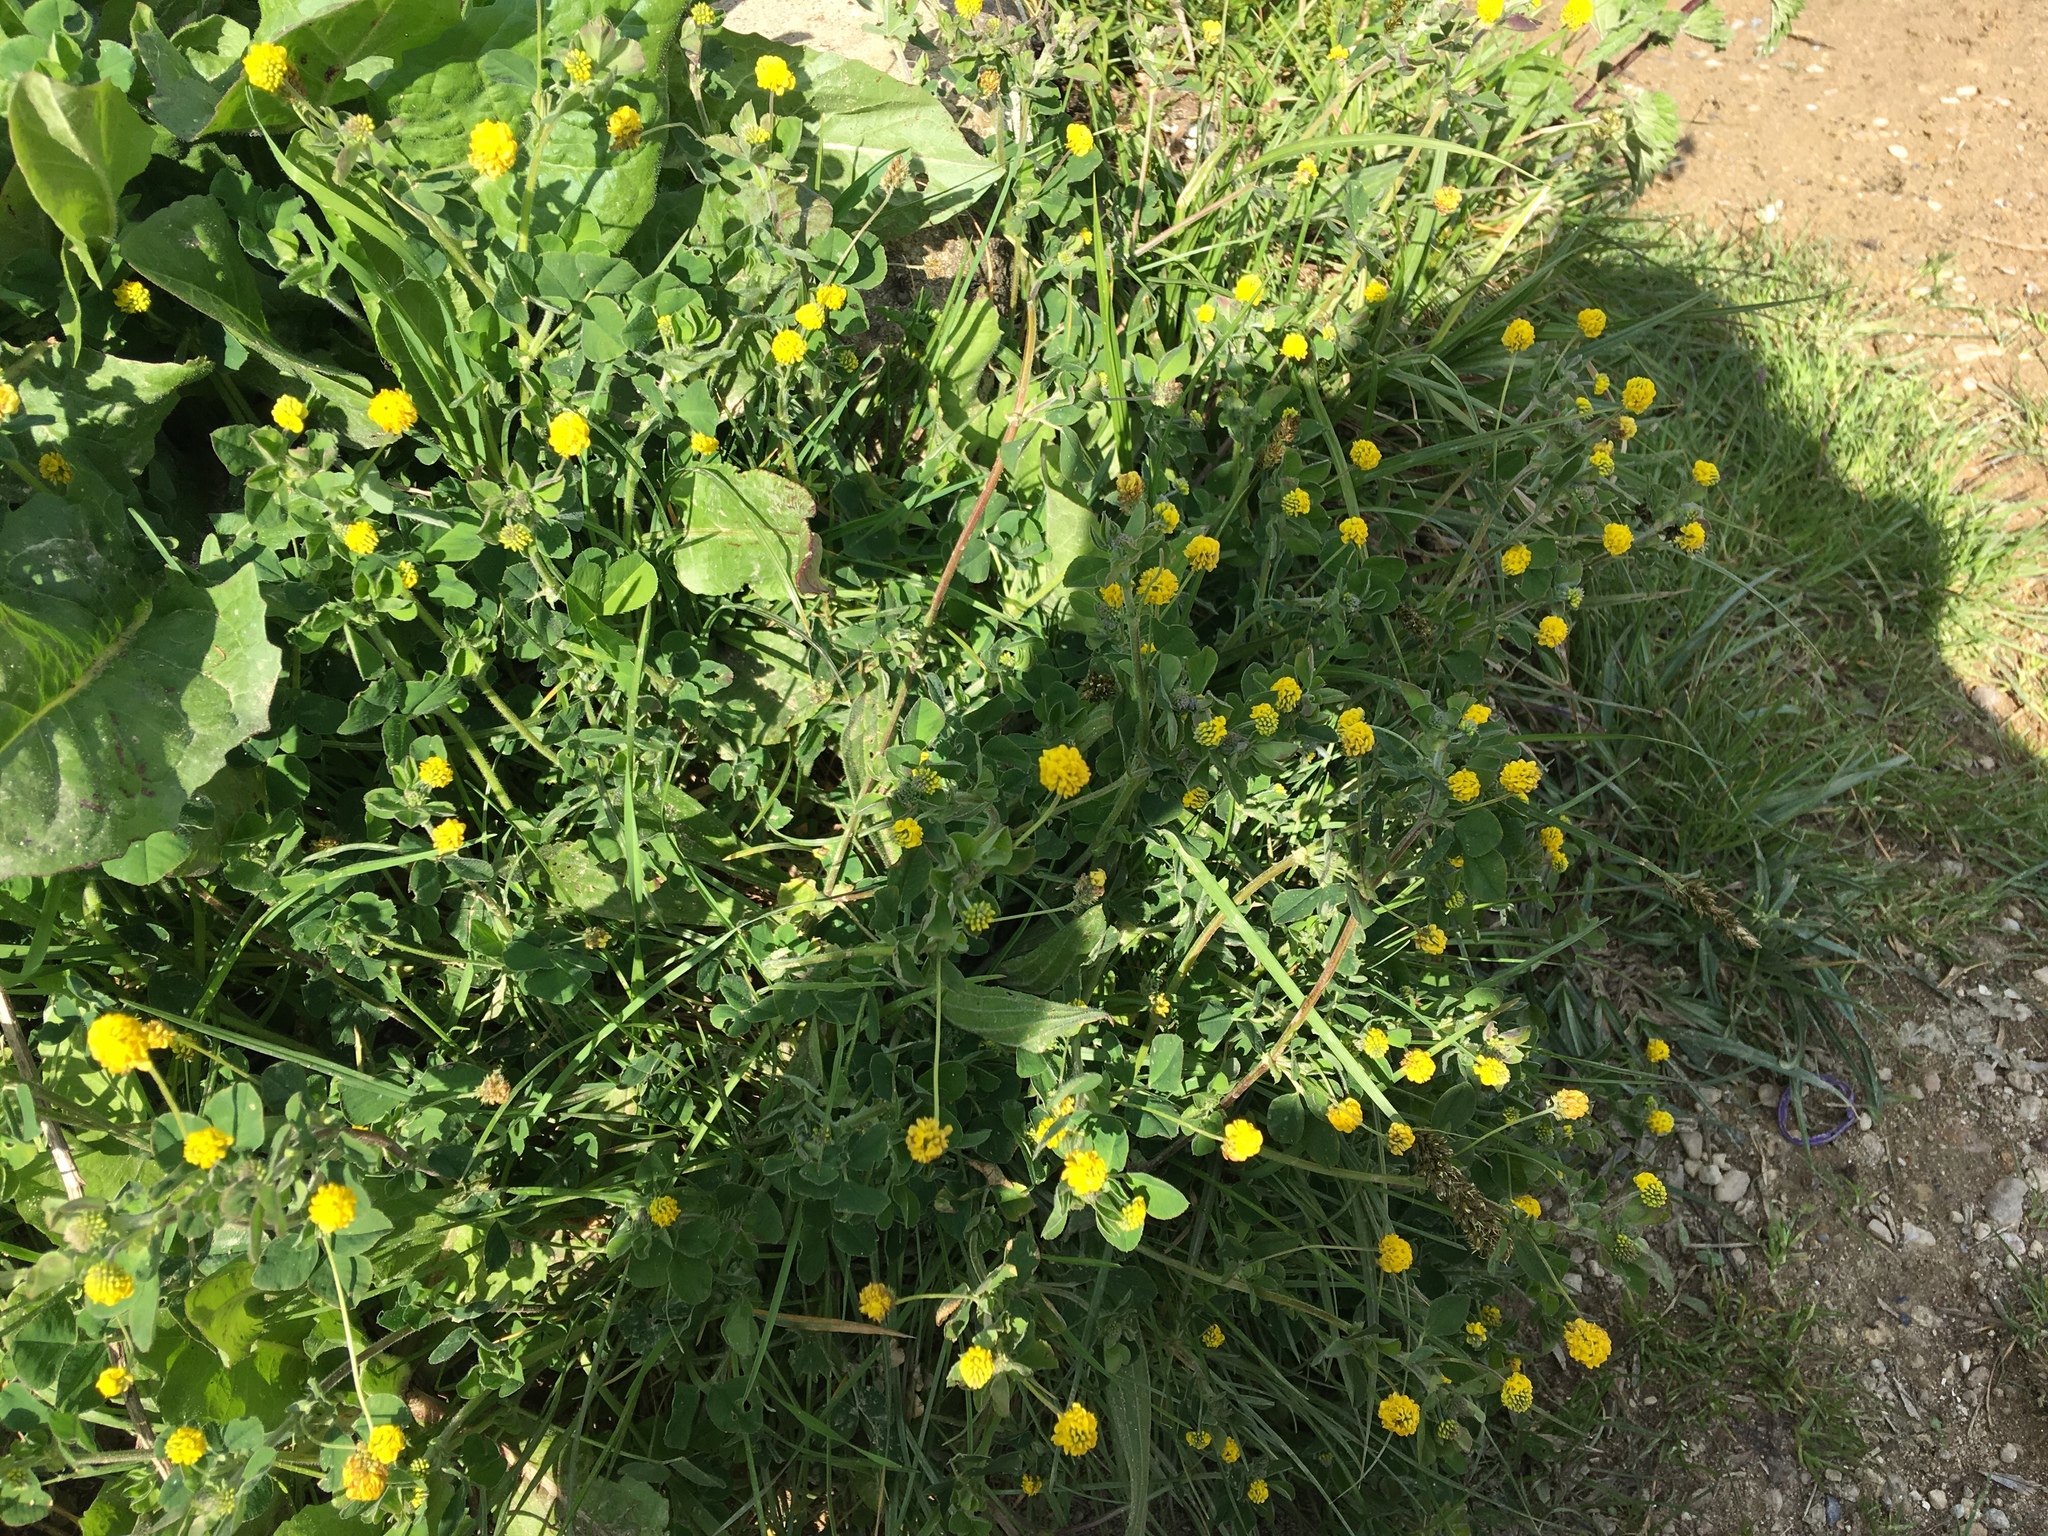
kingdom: Plantae
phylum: Tracheophyta
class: Magnoliopsida
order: Fabales
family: Fabaceae
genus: Medicago
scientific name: Medicago lupulina
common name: Black medick
